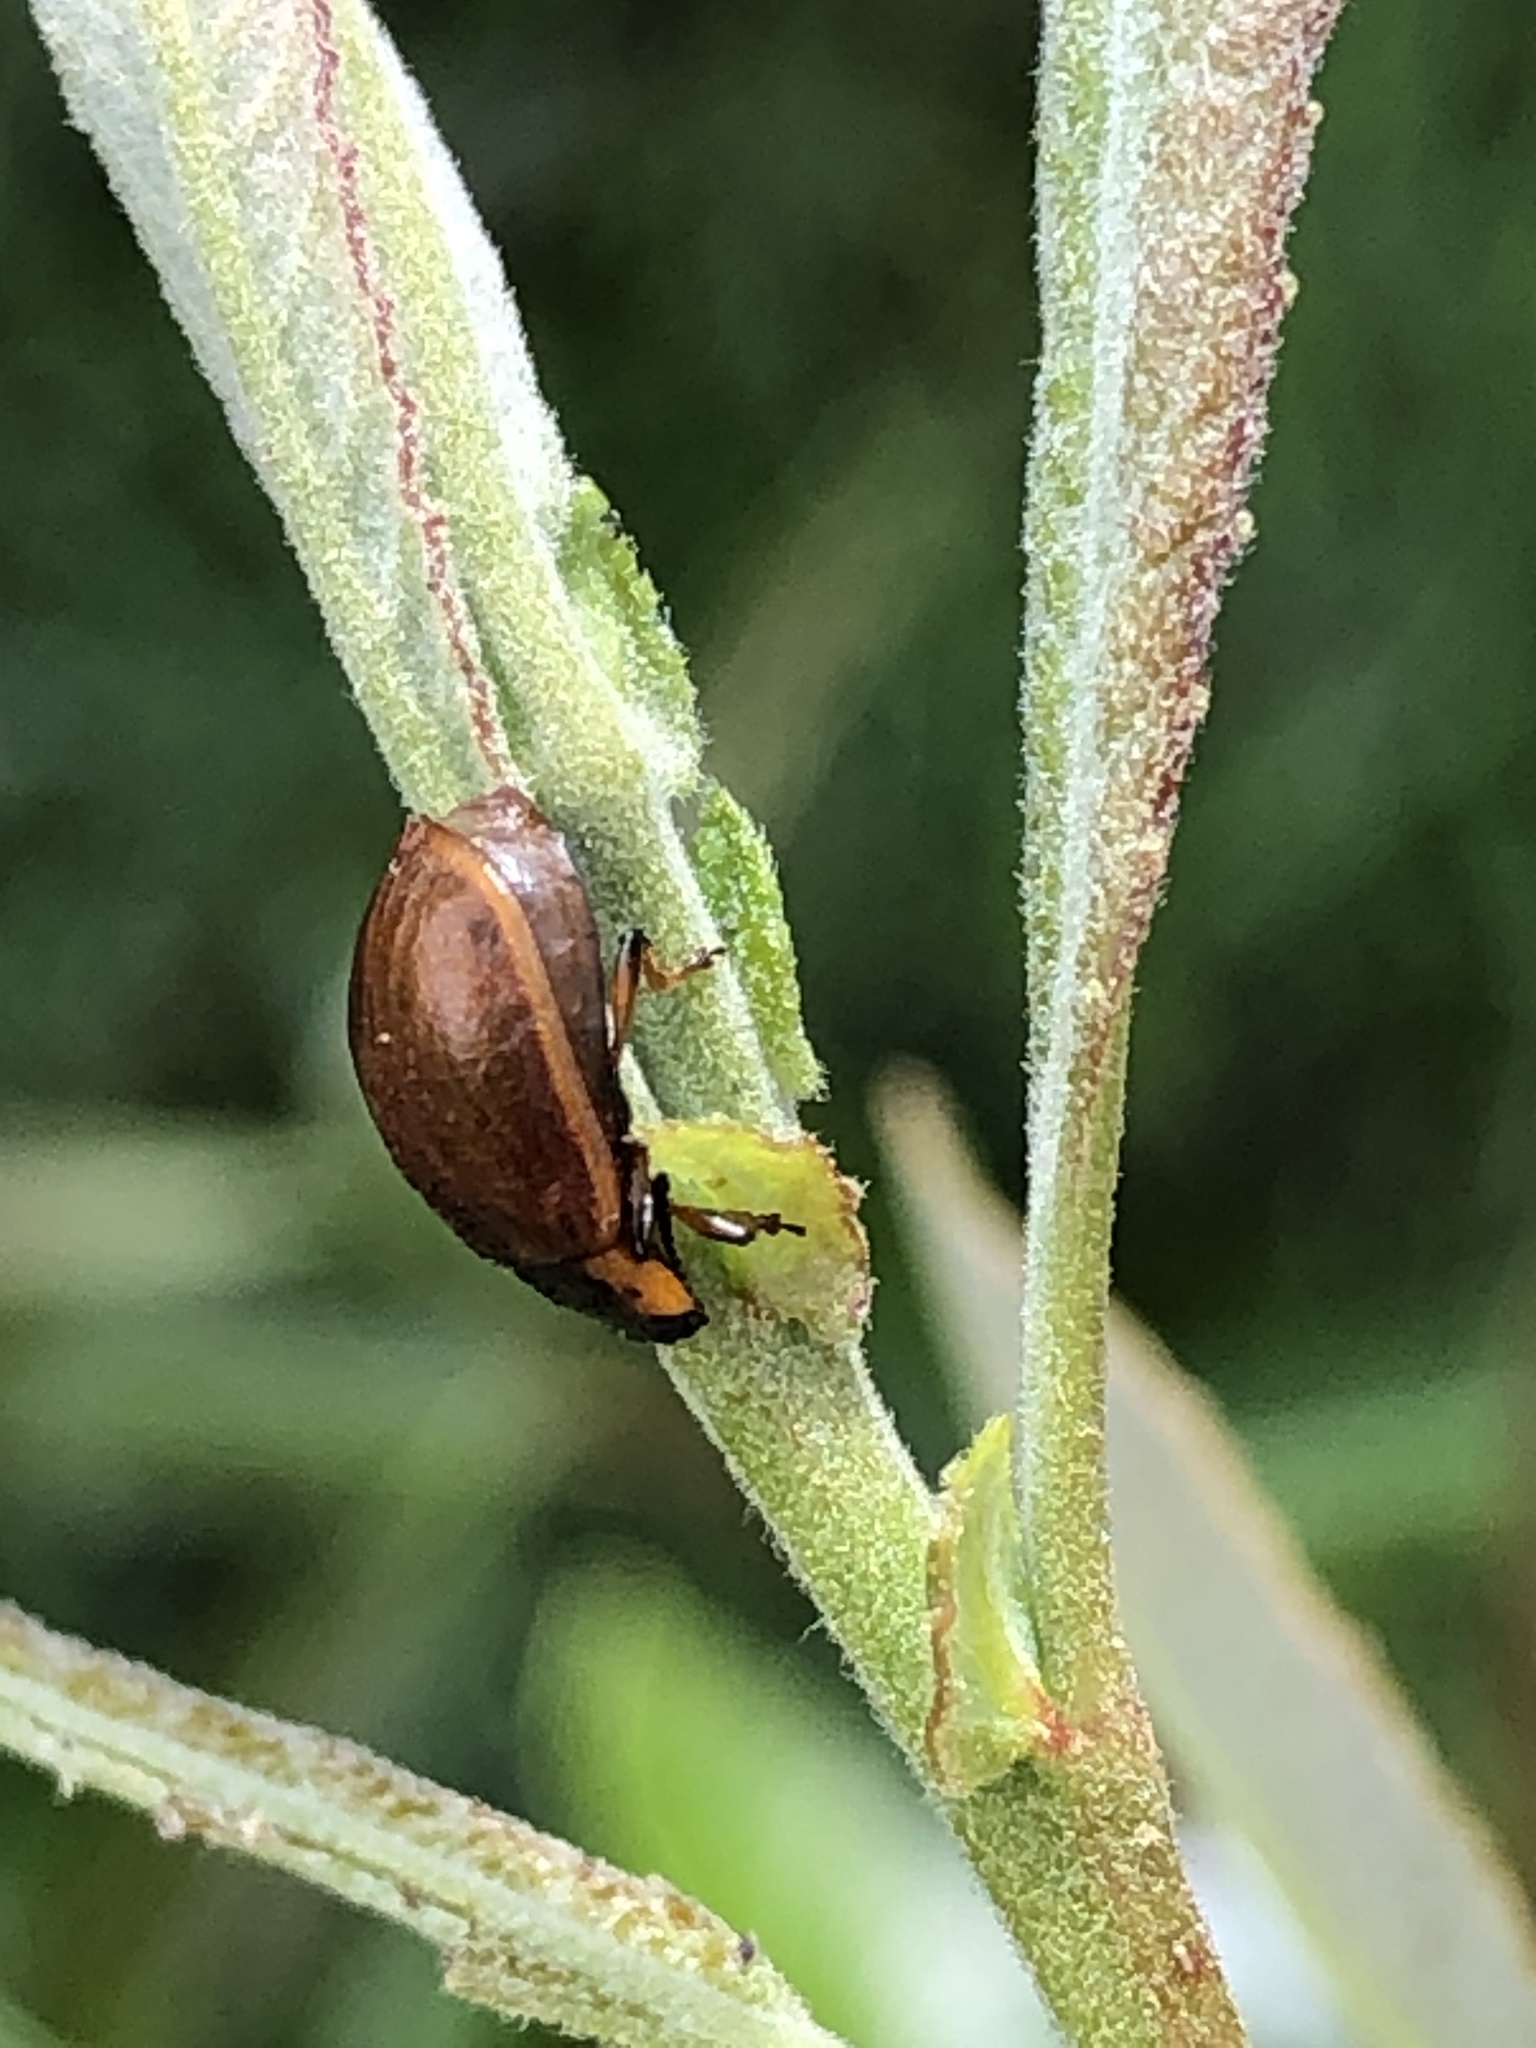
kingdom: Animalia
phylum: Arthropoda
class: Insecta
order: Coleoptera
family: Chrysomelidae
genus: Chrysomela
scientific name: Chrysomela schaefferi
